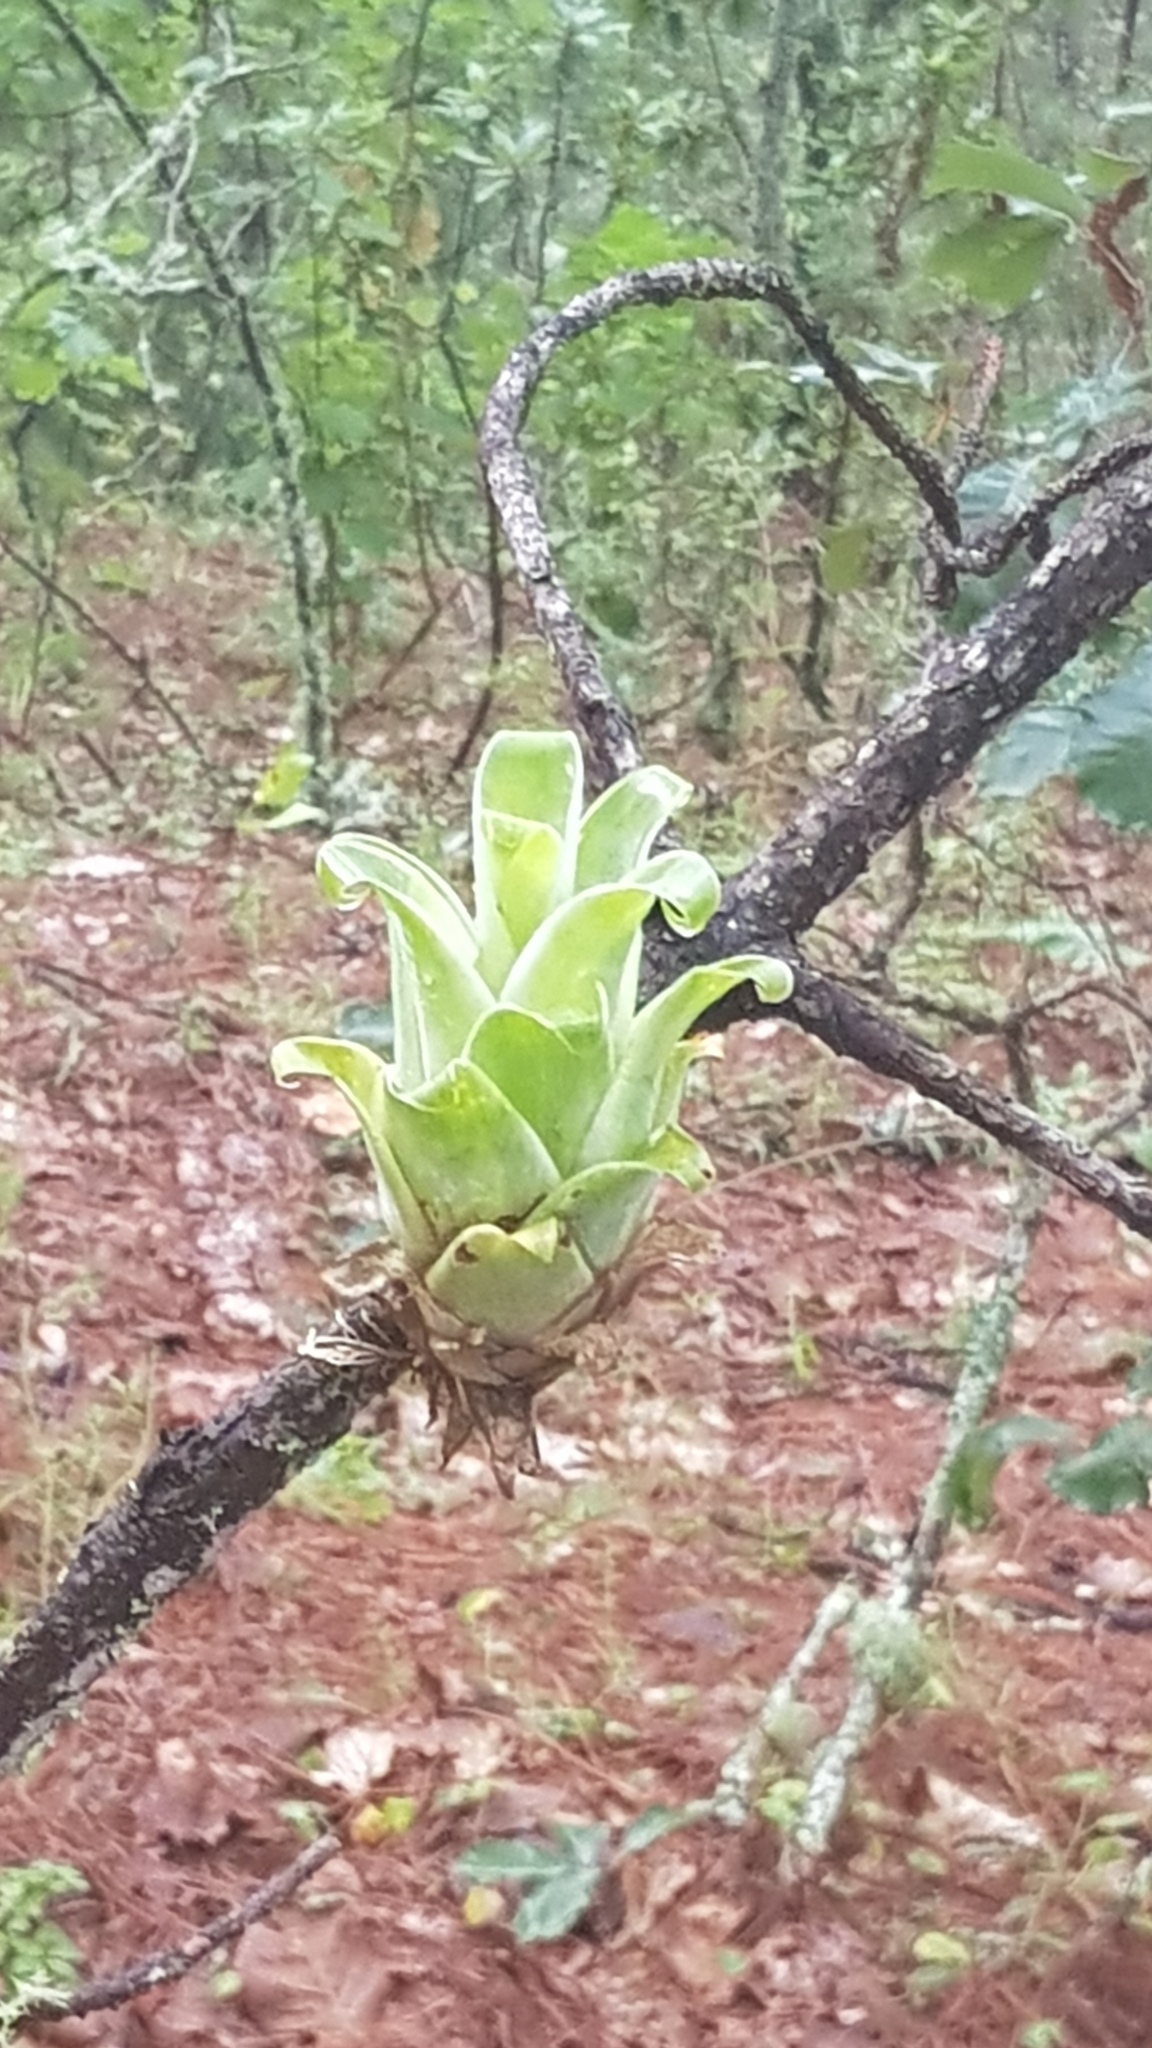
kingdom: Plantae
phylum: Tracheophyta
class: Liliopsida
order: Poales
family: Bromeliaceae
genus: Catopsis
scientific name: Catopsis berteroniana
